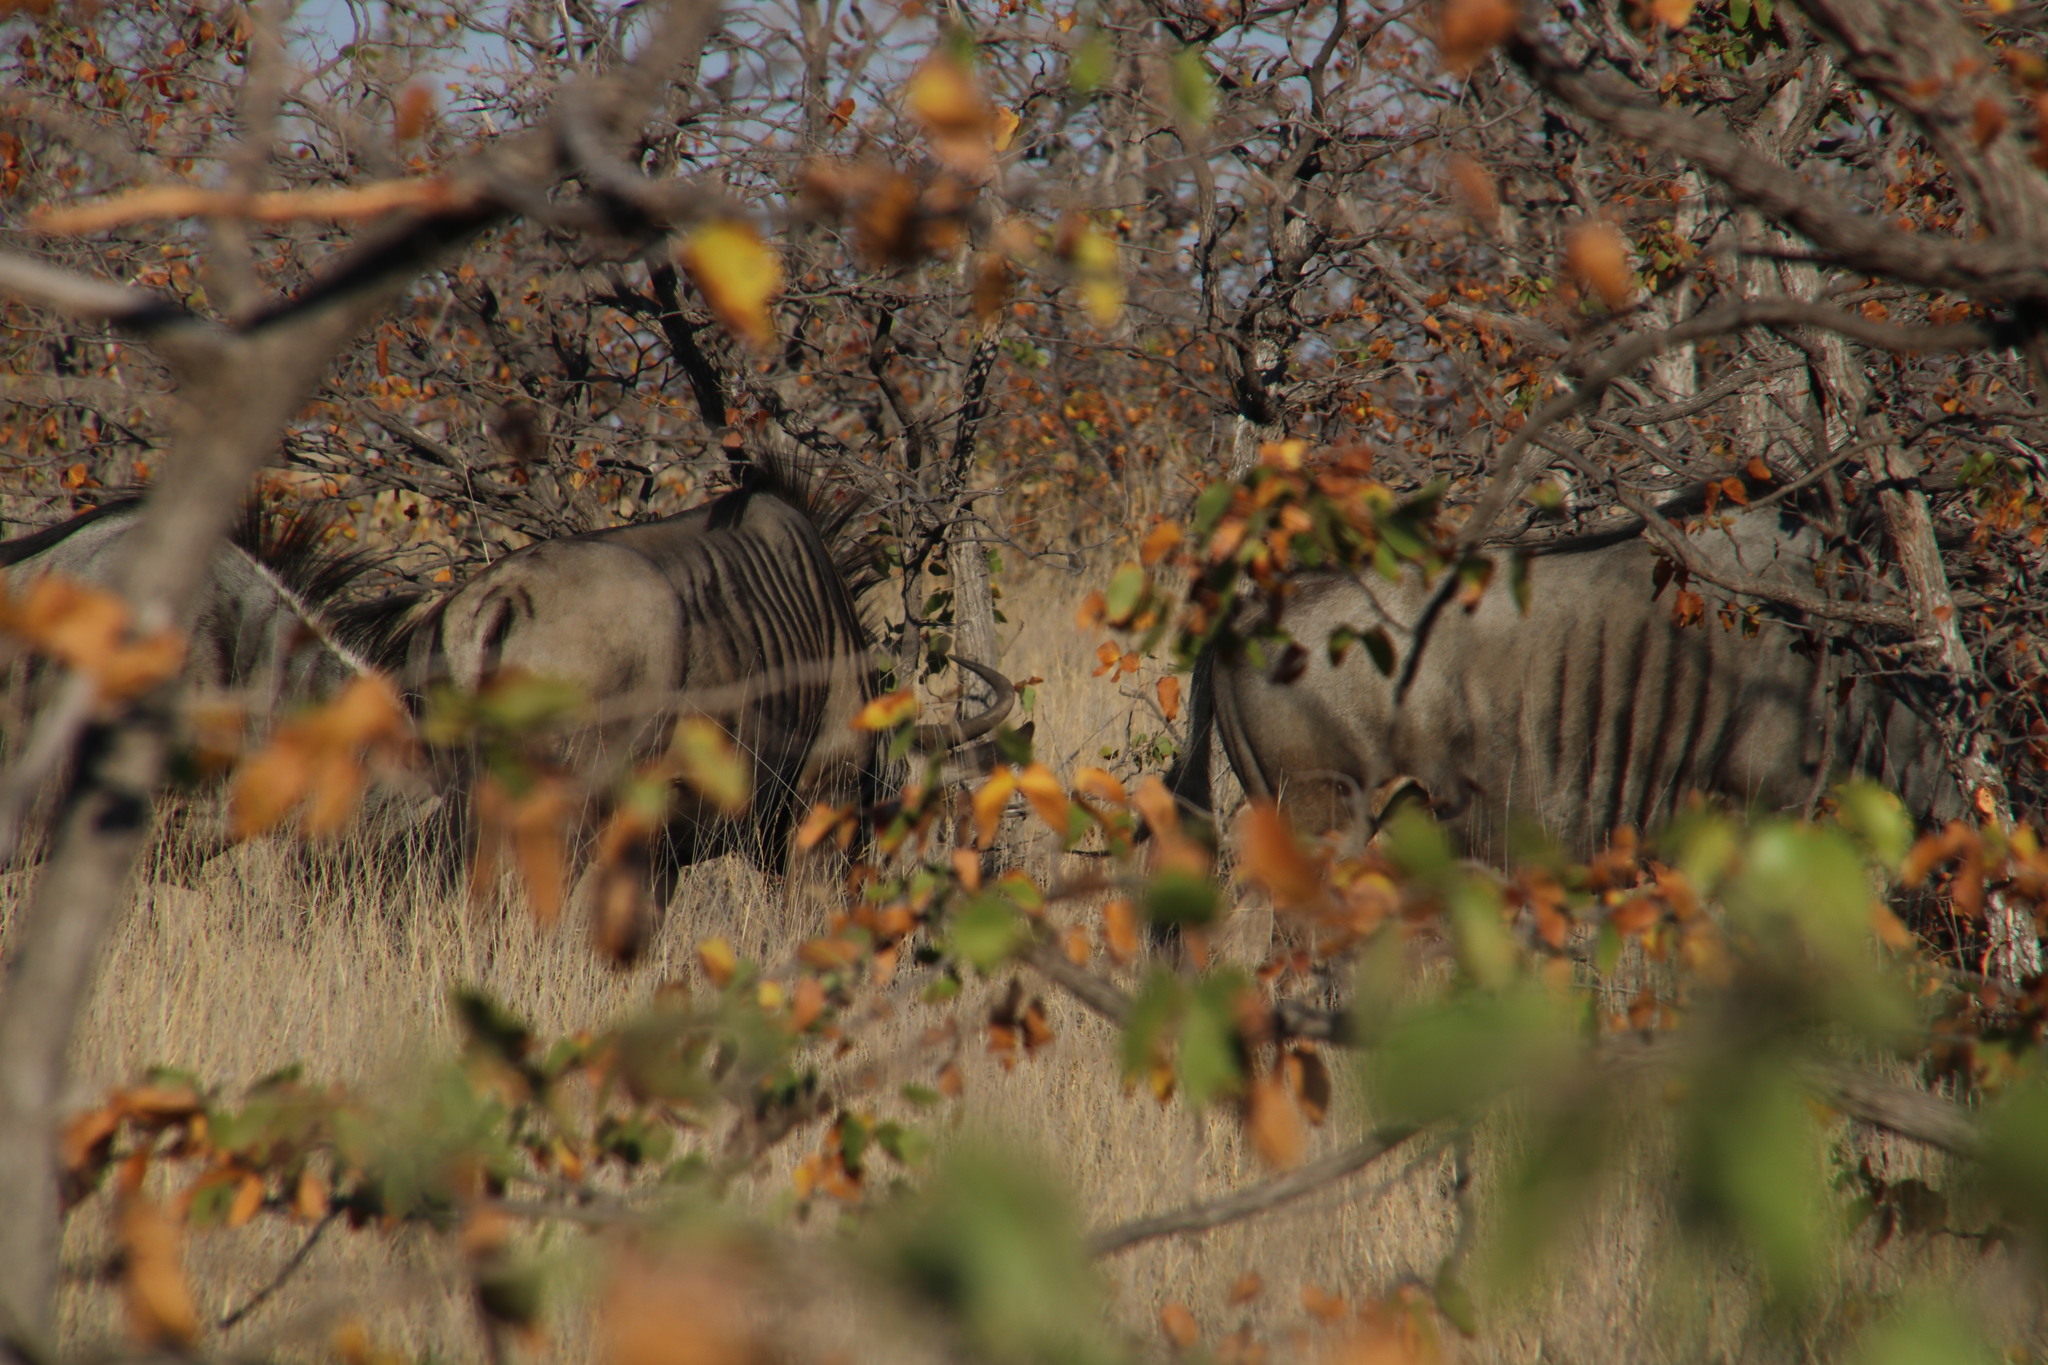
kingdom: Animalia
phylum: Chordata
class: Mammalia
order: Artiodactyla
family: Bovidae
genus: Connochaetes
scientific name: Connochaetes taurinus
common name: Blue wildebeest
